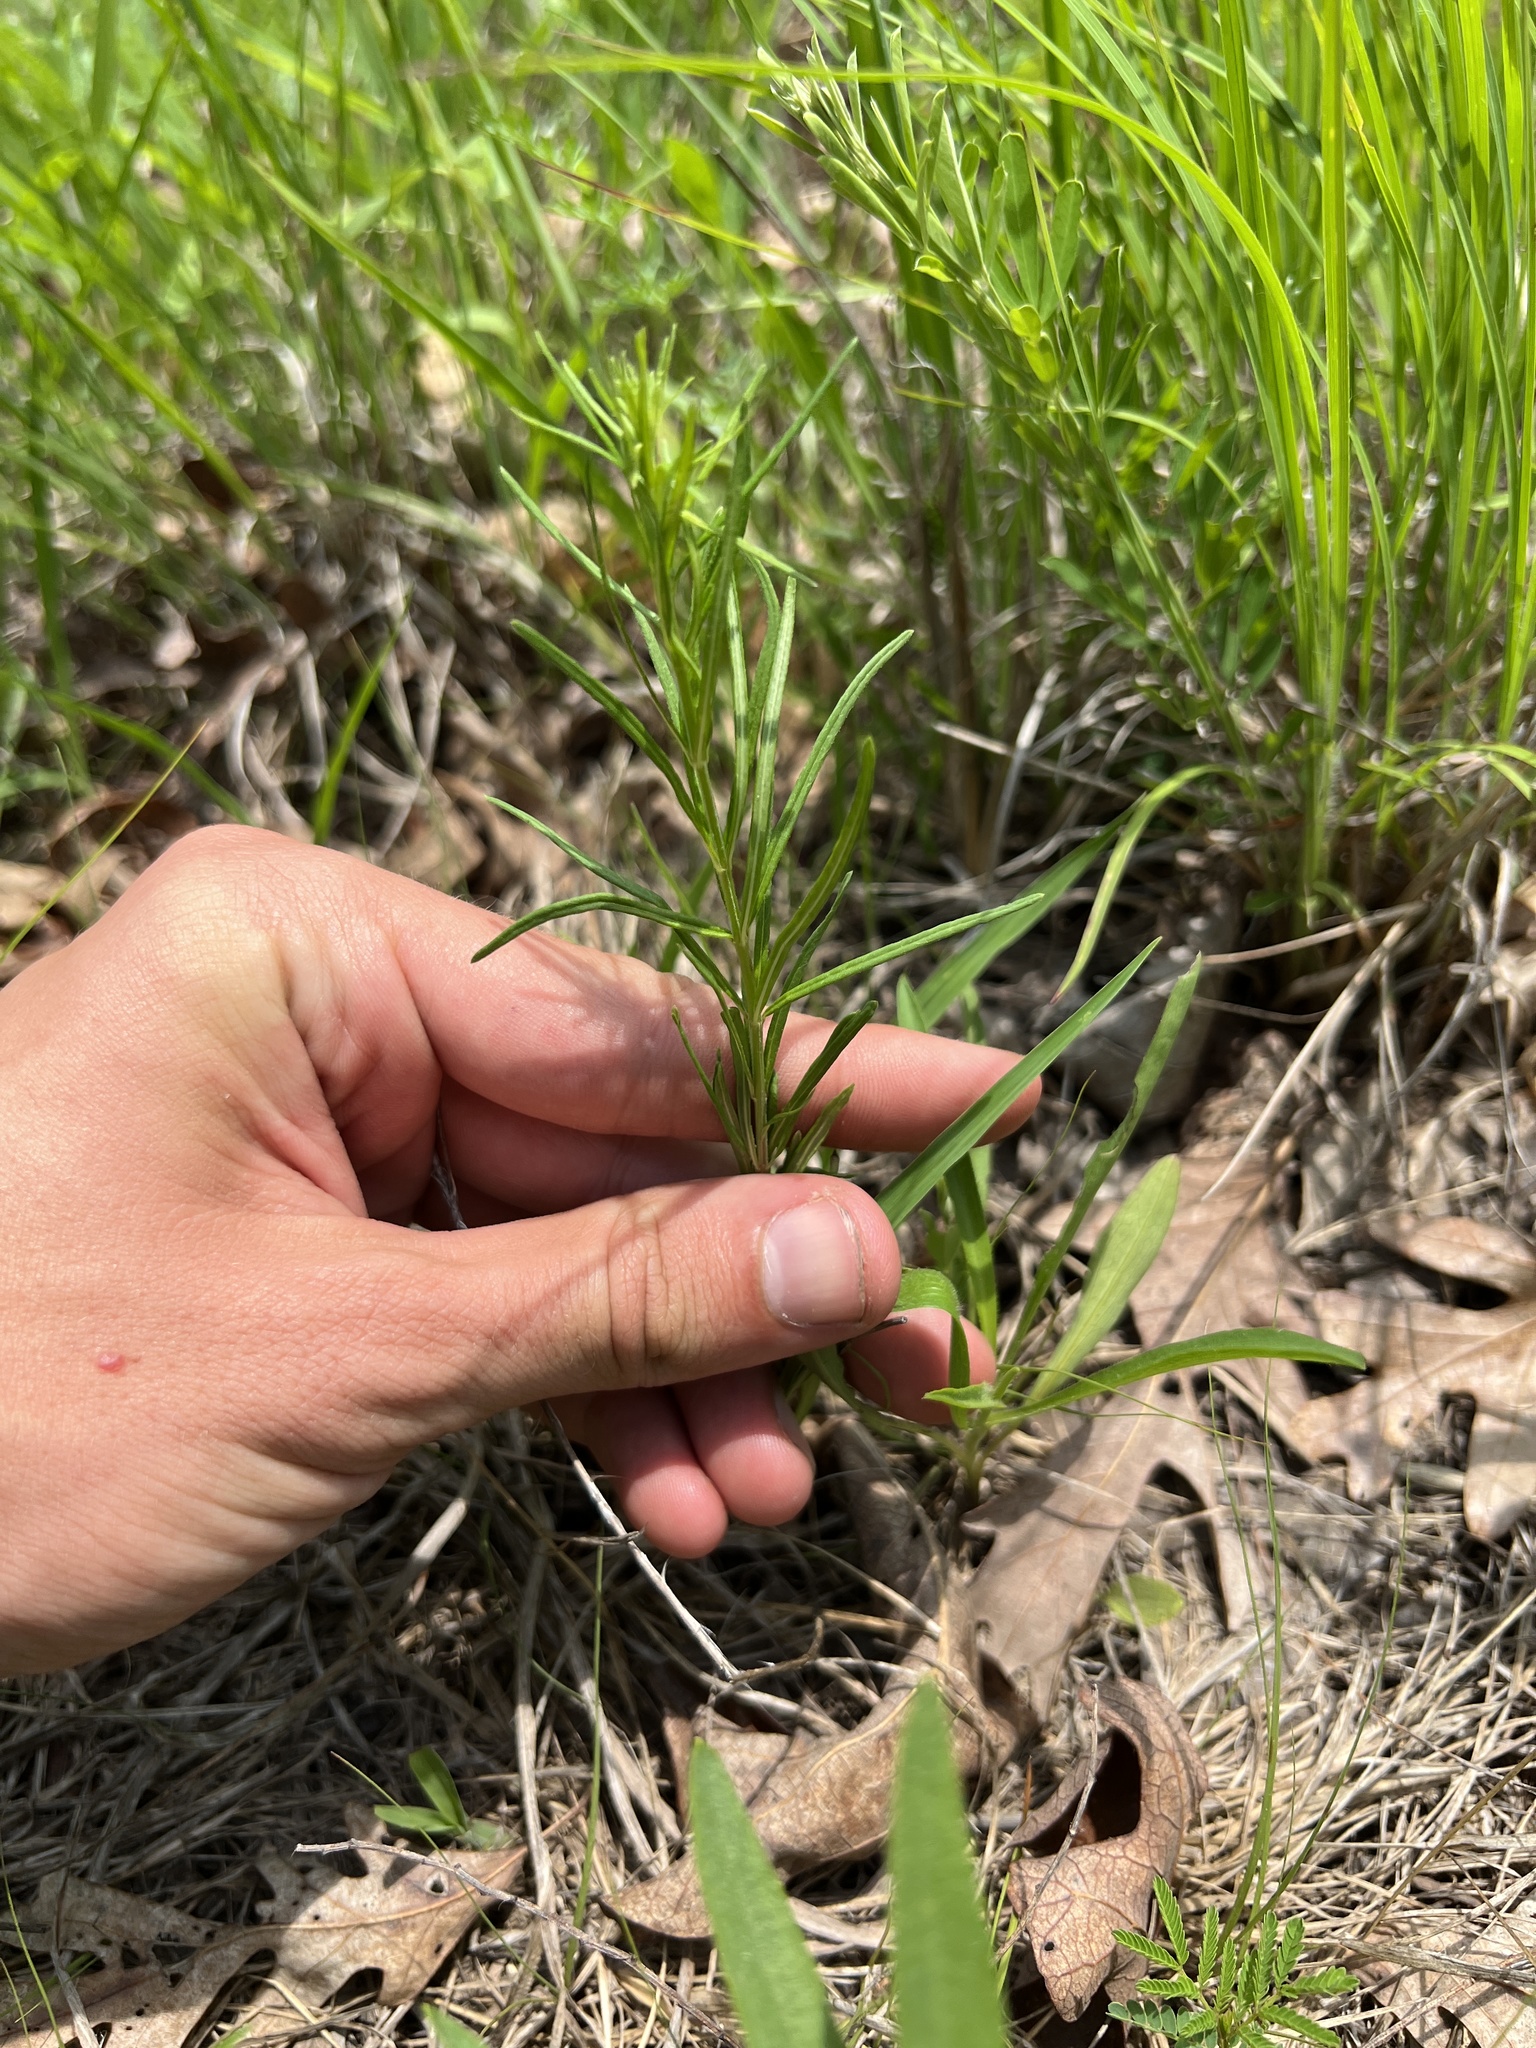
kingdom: Plantae
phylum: Tracheophyta
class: Magnoliopsida
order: Gentianales
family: Apocynaceae
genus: Asclepias
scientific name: Asclepias verticillata
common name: Eastern whorled milkweed
